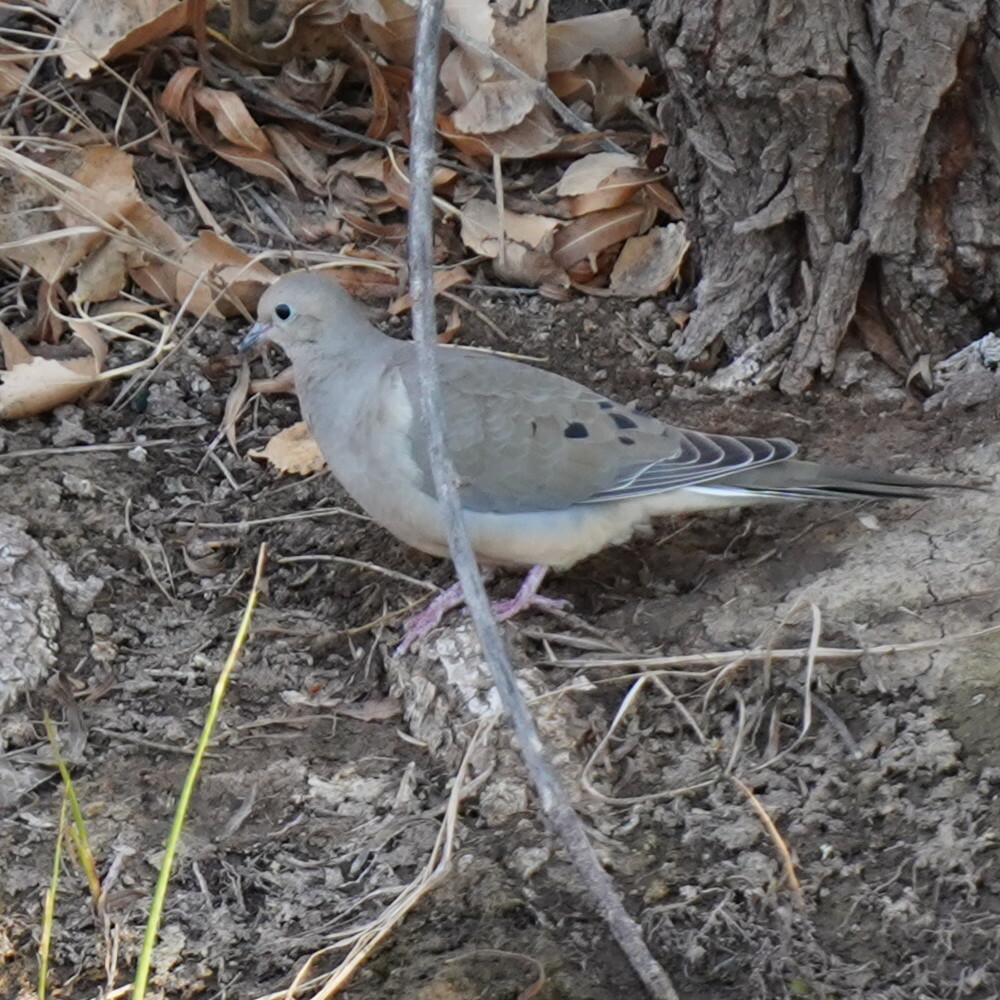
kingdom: Animalia
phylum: Chordata
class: Aves
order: Columbiformes
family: Columbidae
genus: Zenaida
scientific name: Zenaida macroura
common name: Mourning dove
